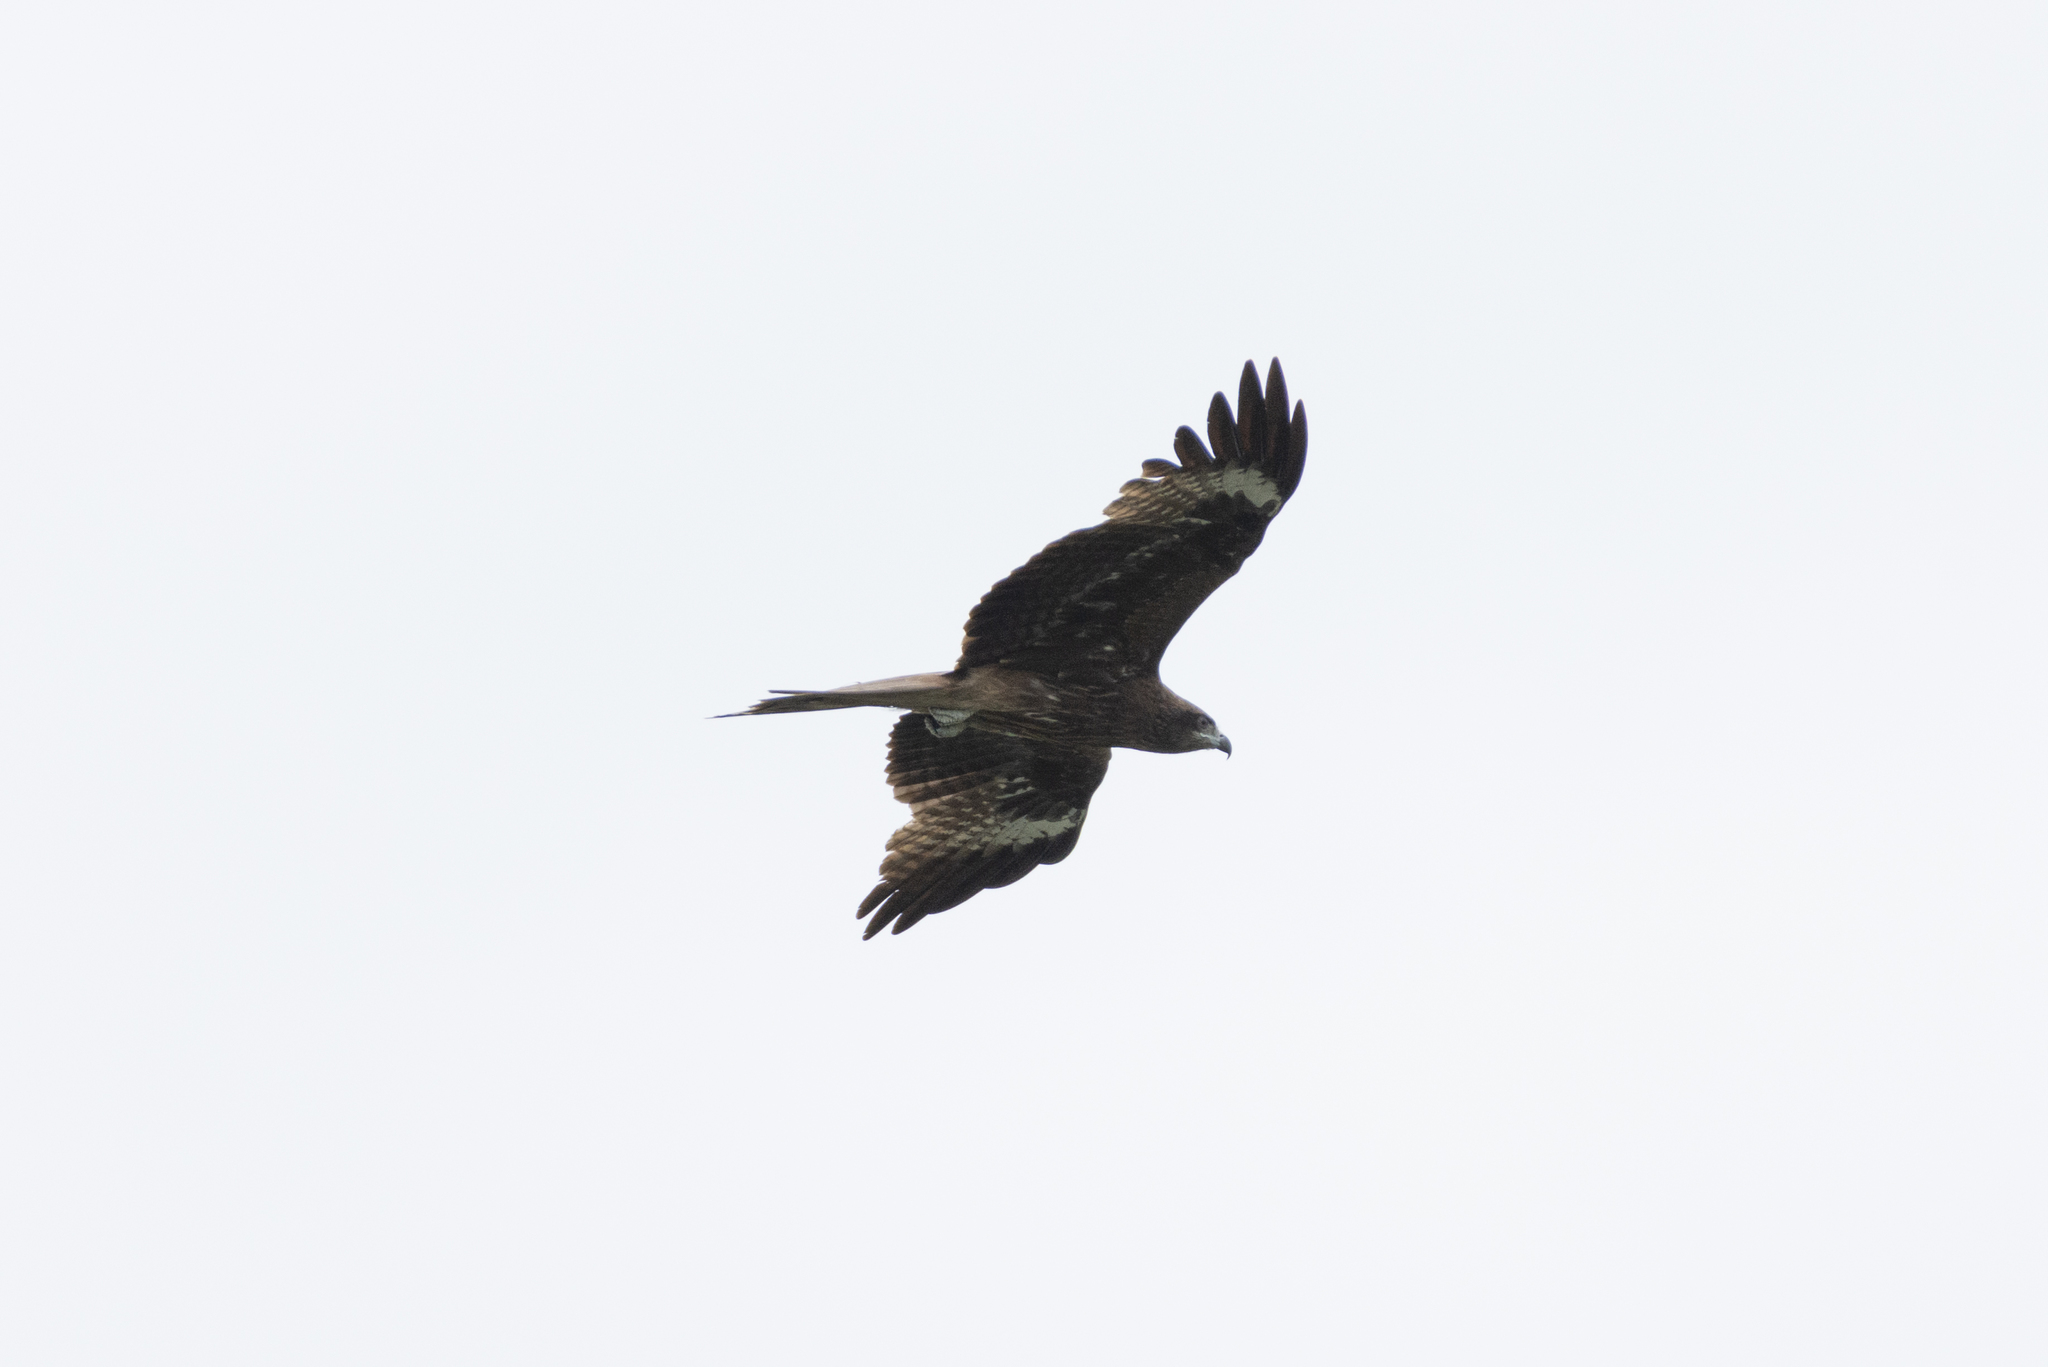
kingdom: Animalia
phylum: Chordata
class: Aves
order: Accipitriformes
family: Accipitridae
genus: Milvus
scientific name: Milvus migrans
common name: Black kite
